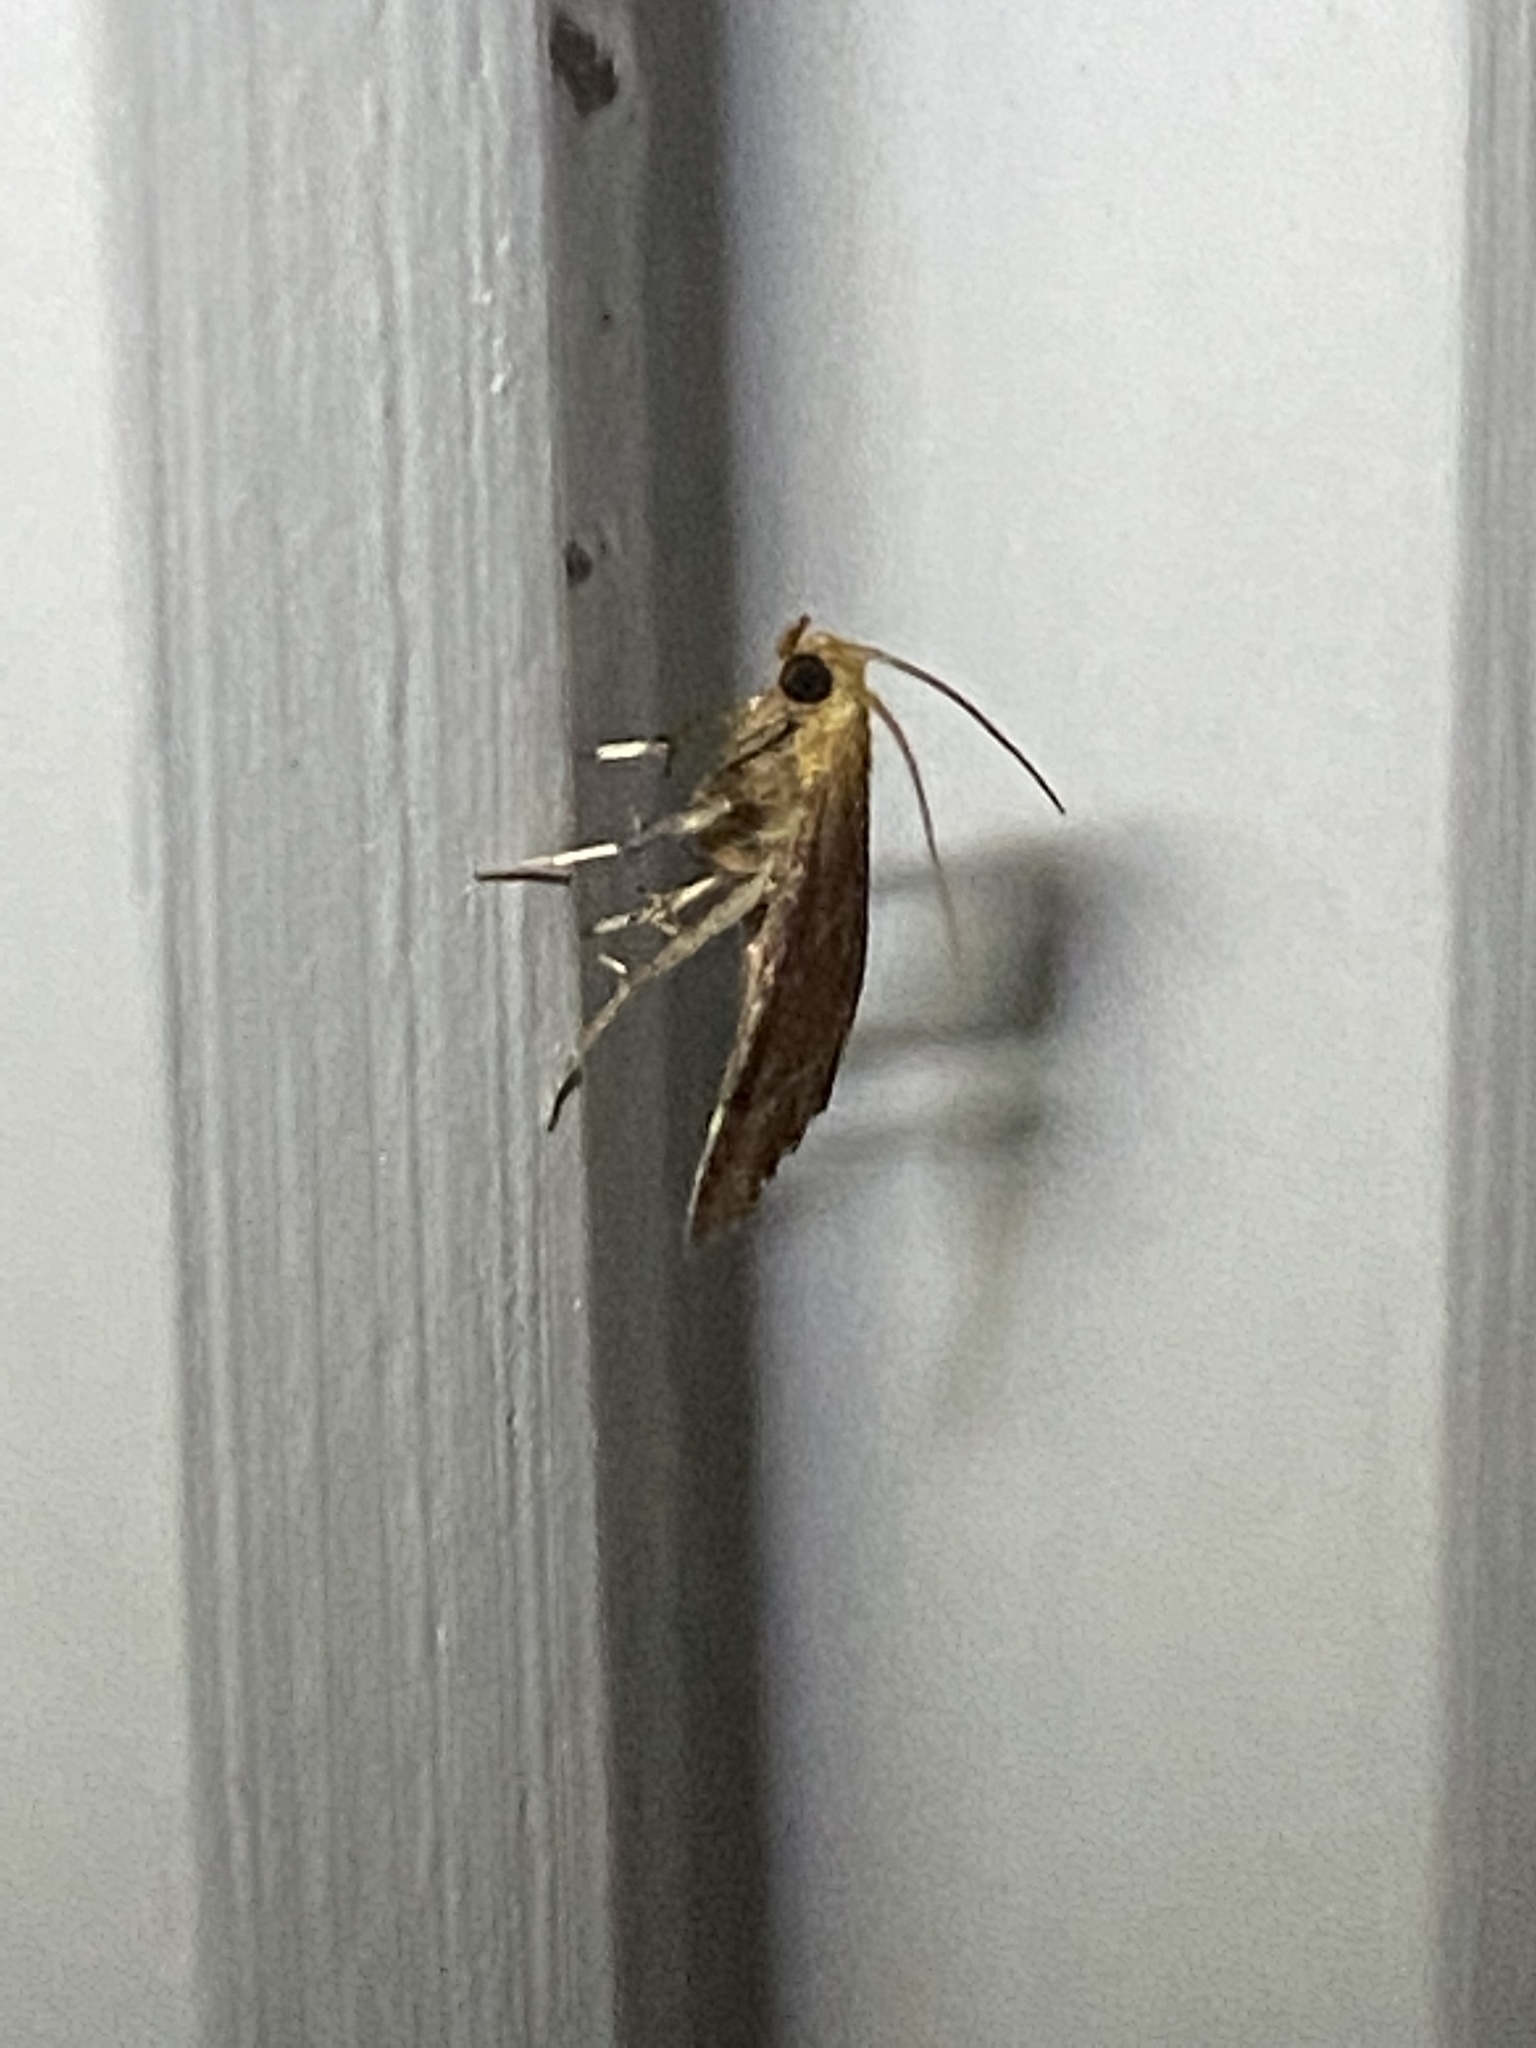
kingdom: Animalia
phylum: Arthropoda
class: Insecta
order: Lepidoptera
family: Pyralidae
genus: Arta
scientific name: Arta statalis
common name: Posturing arta moth
